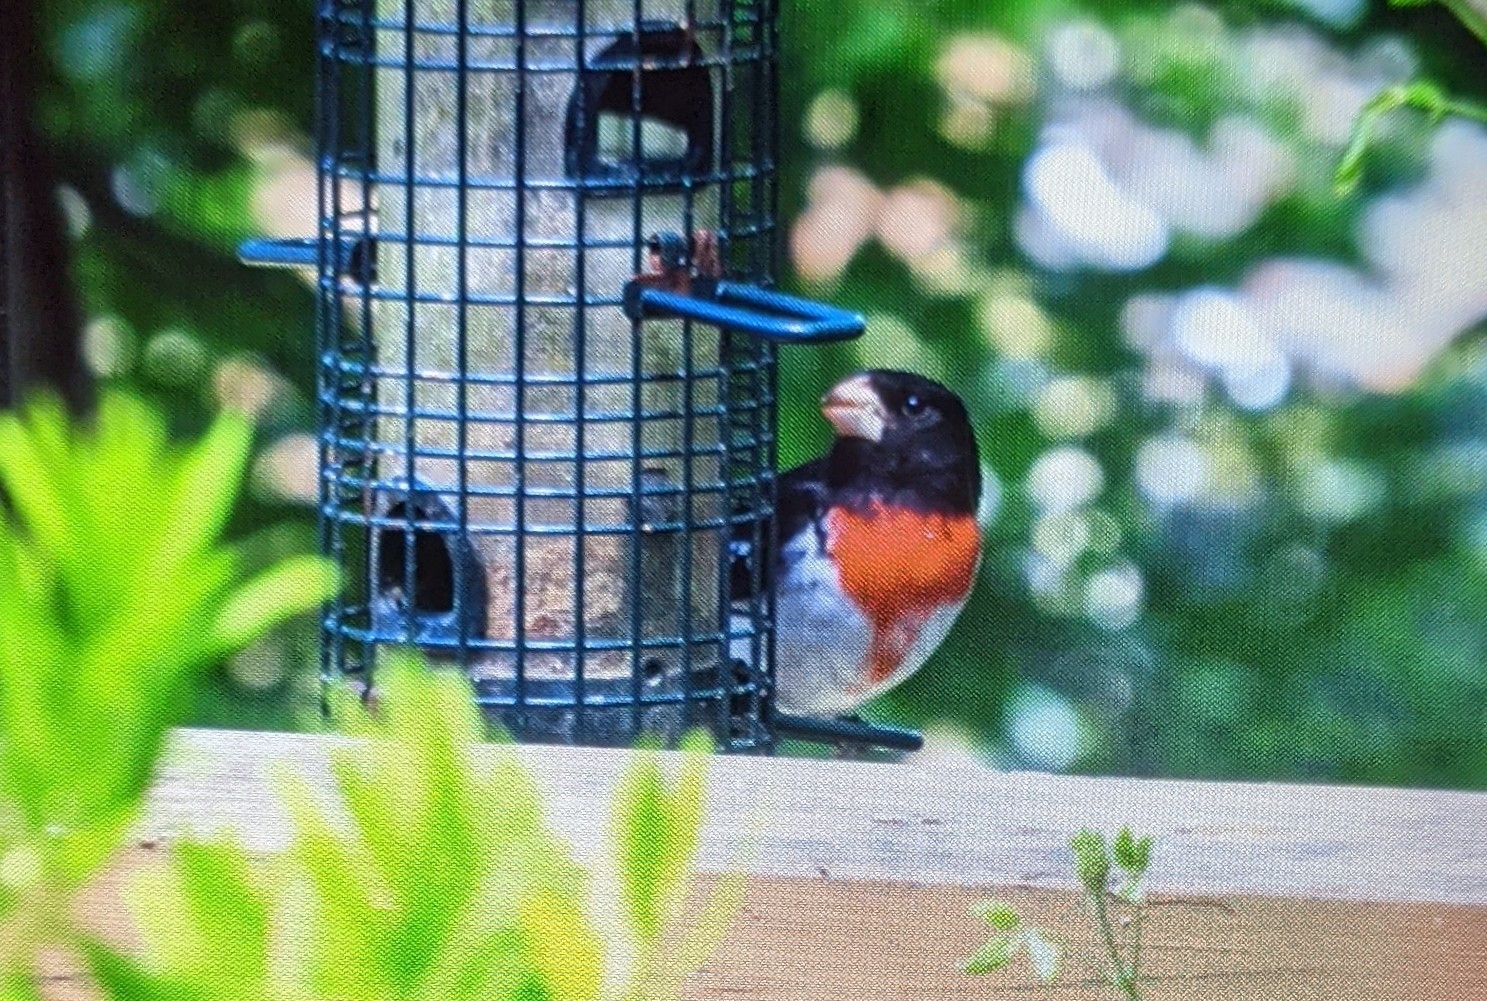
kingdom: Animalia
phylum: Chordata
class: Aves
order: Passeriformes
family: Cardinalidae
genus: Pheucticus
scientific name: Pheucticus ludovicianus
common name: Rose-breasted grosbeak
